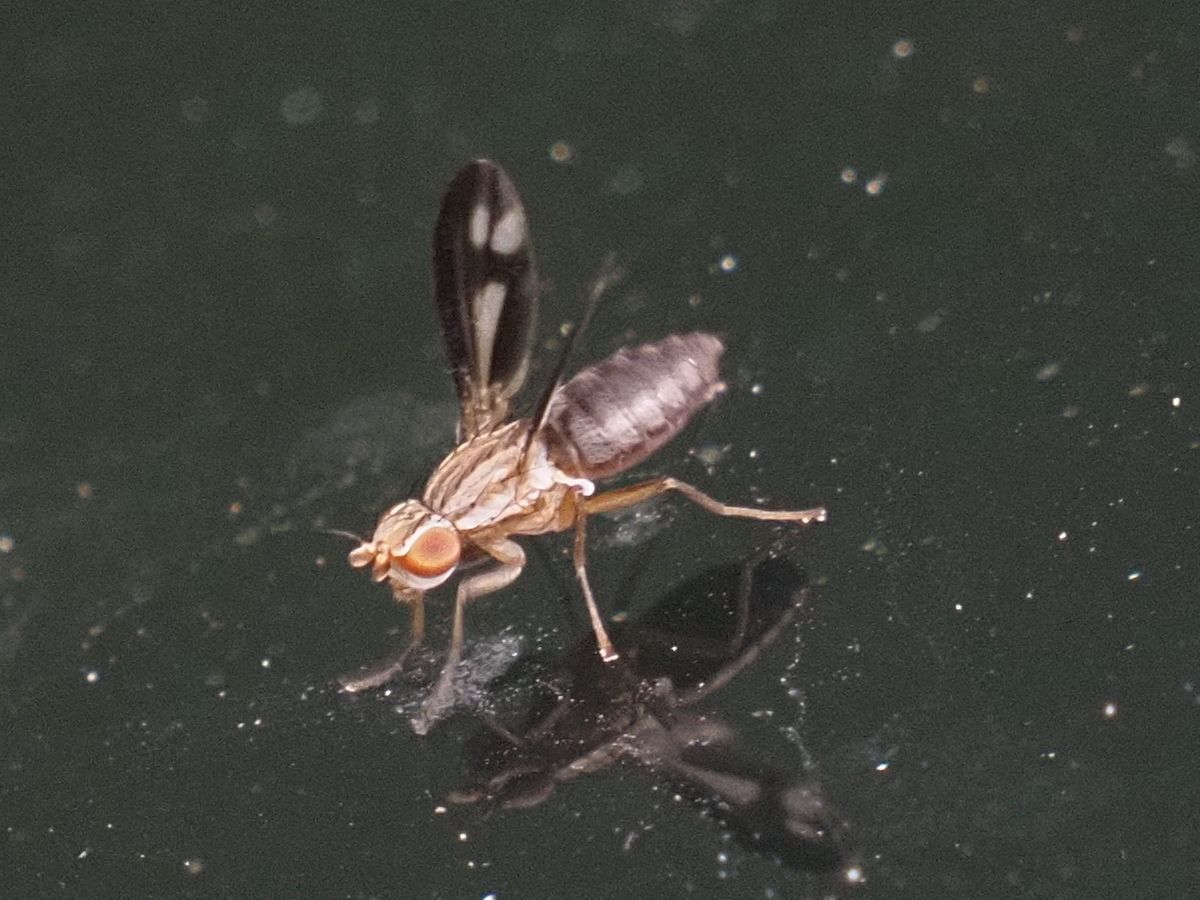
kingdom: Animalia
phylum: Arthropoda
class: Insecta
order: Diptera
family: Heleomyzidae
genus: Trixoscelis
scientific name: Trixoscelis marginella
